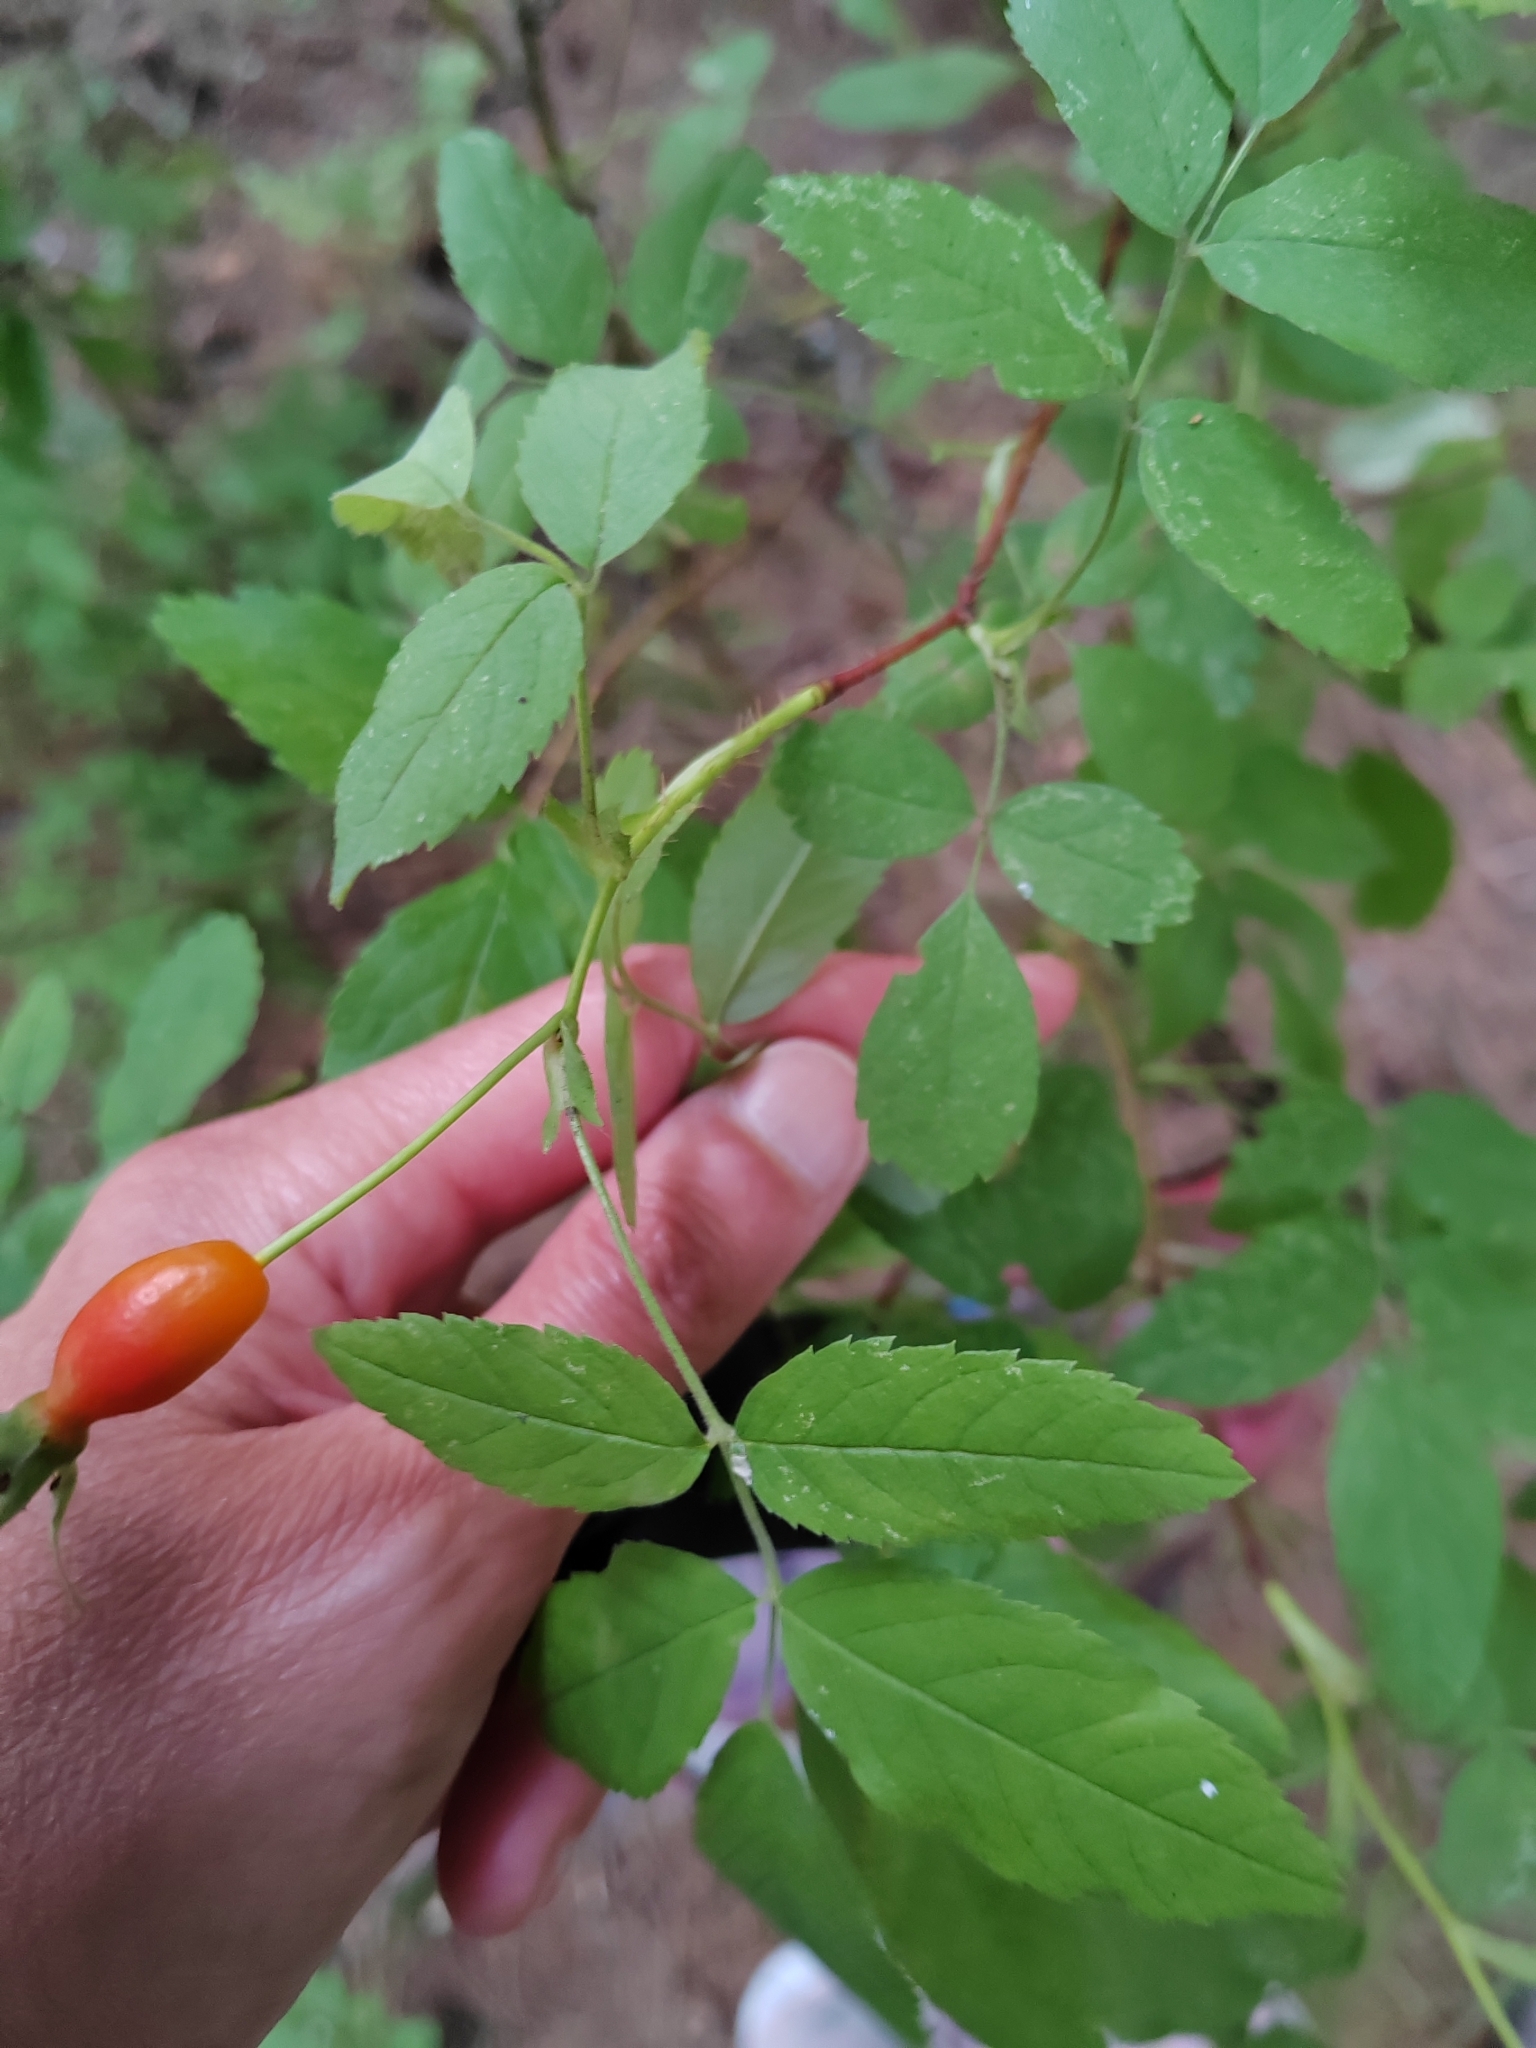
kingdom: Plantae
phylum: Tracheophyta
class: Magnoliopsida
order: Rosales
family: Rosaceae
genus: Rosa
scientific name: Rosa acicularis
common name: Prickly rose
